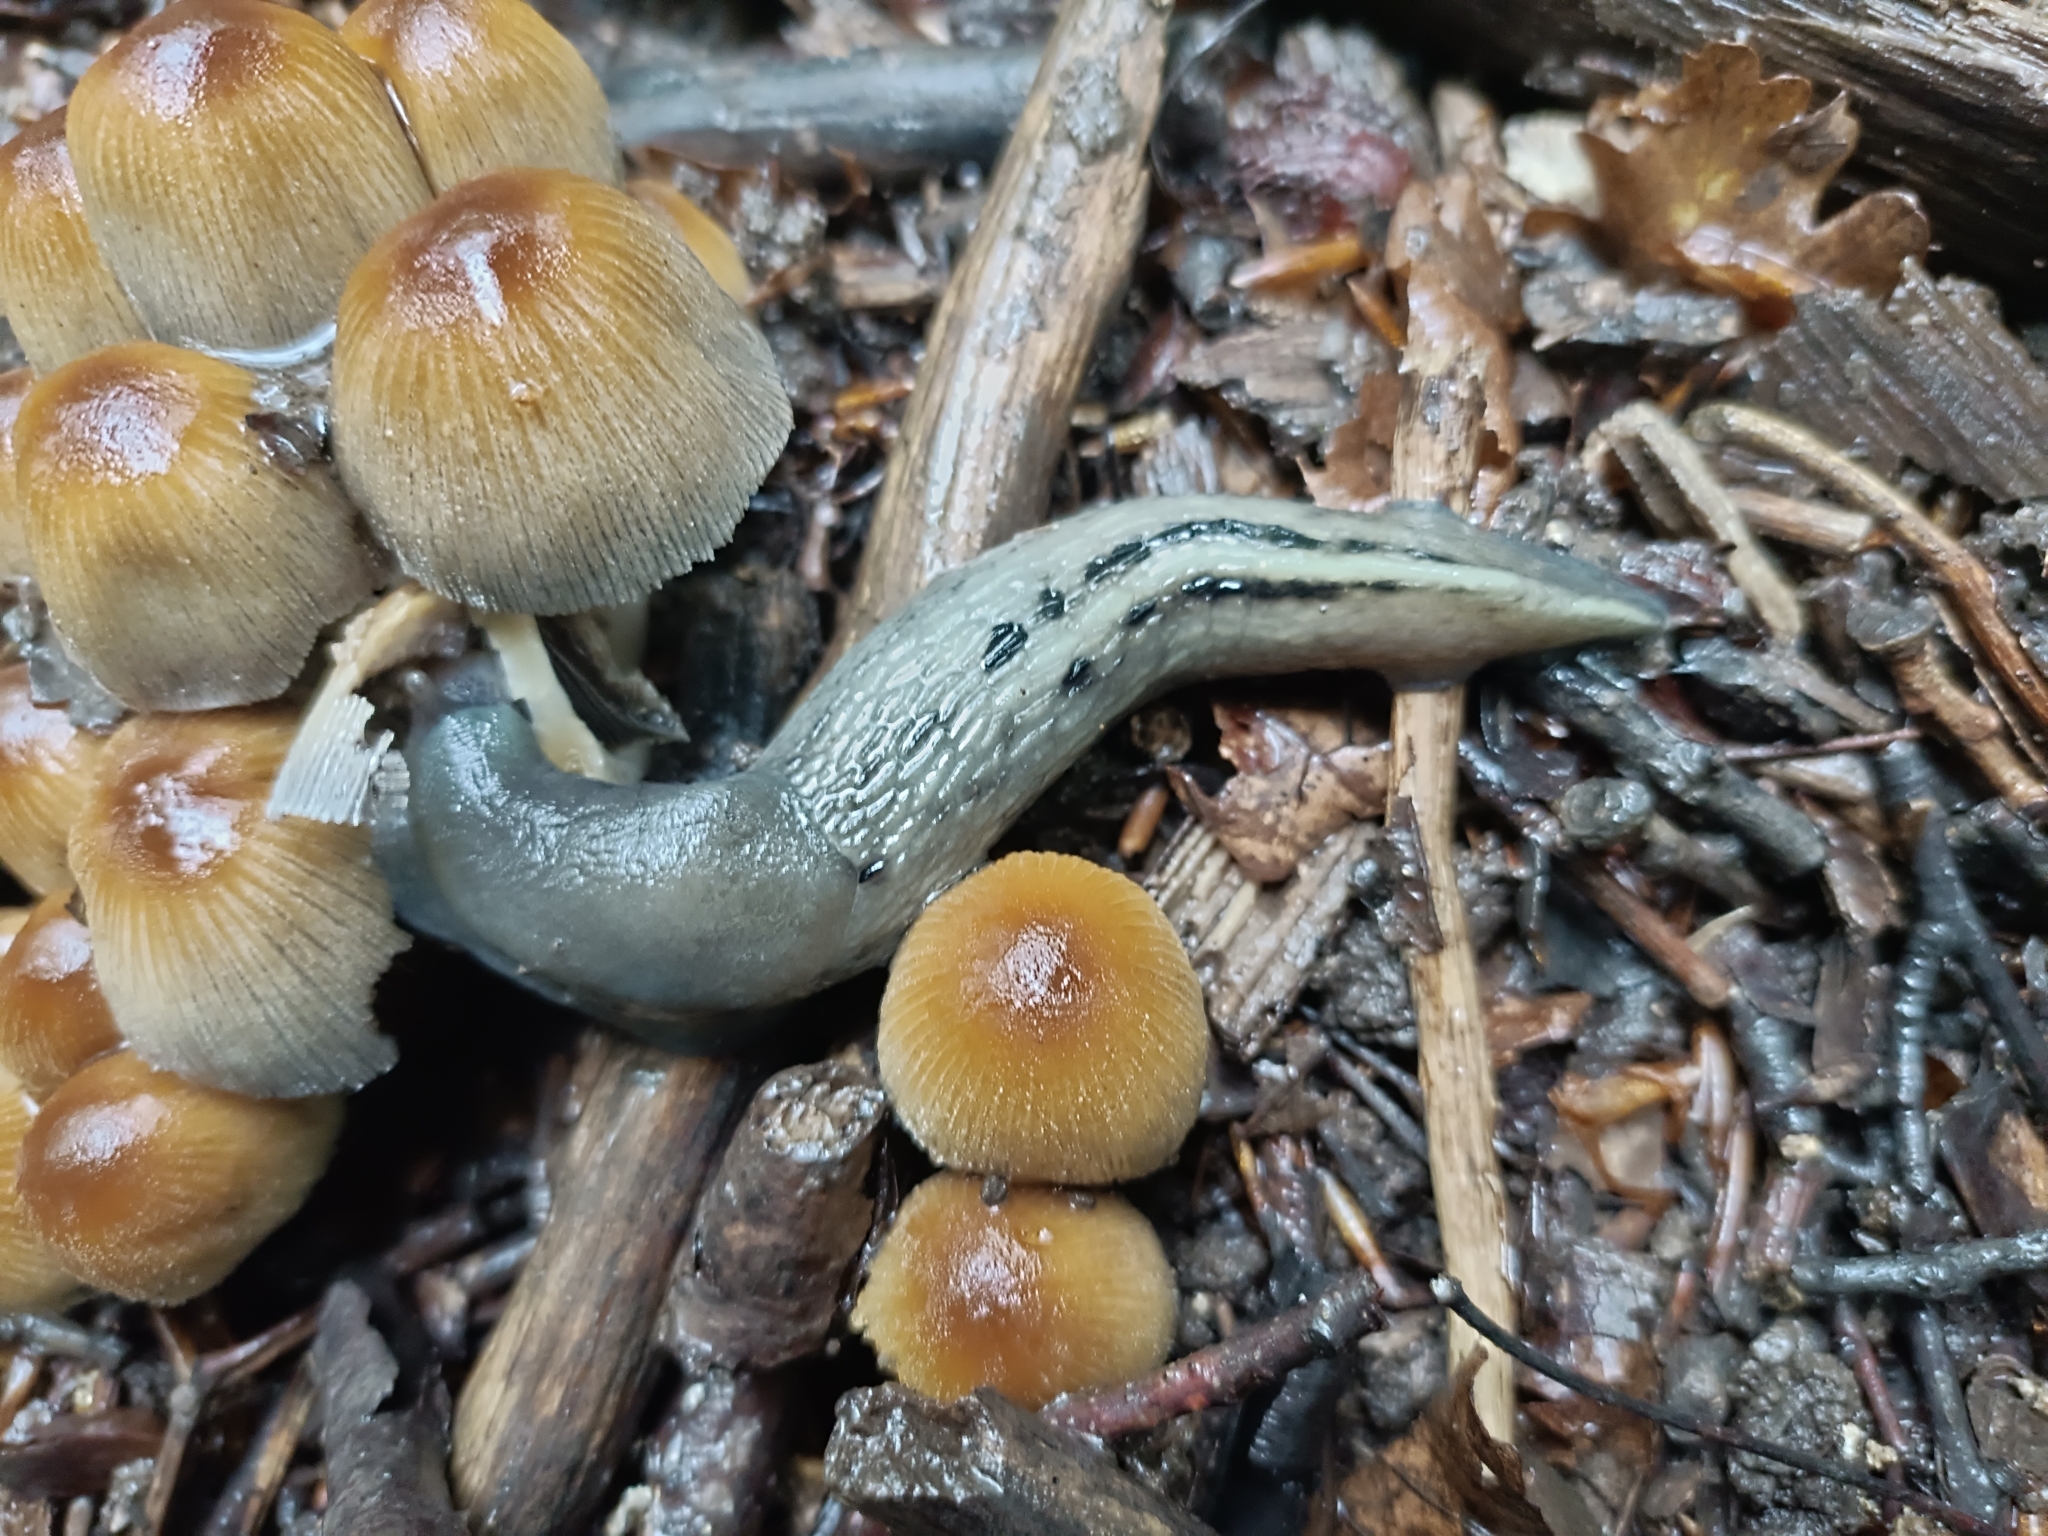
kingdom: Animalia
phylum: Mollusca
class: Gastropoda
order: Stylommatophora
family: Limacidae
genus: Limax
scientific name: Limax cinereoniger
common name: Ash-black slug
